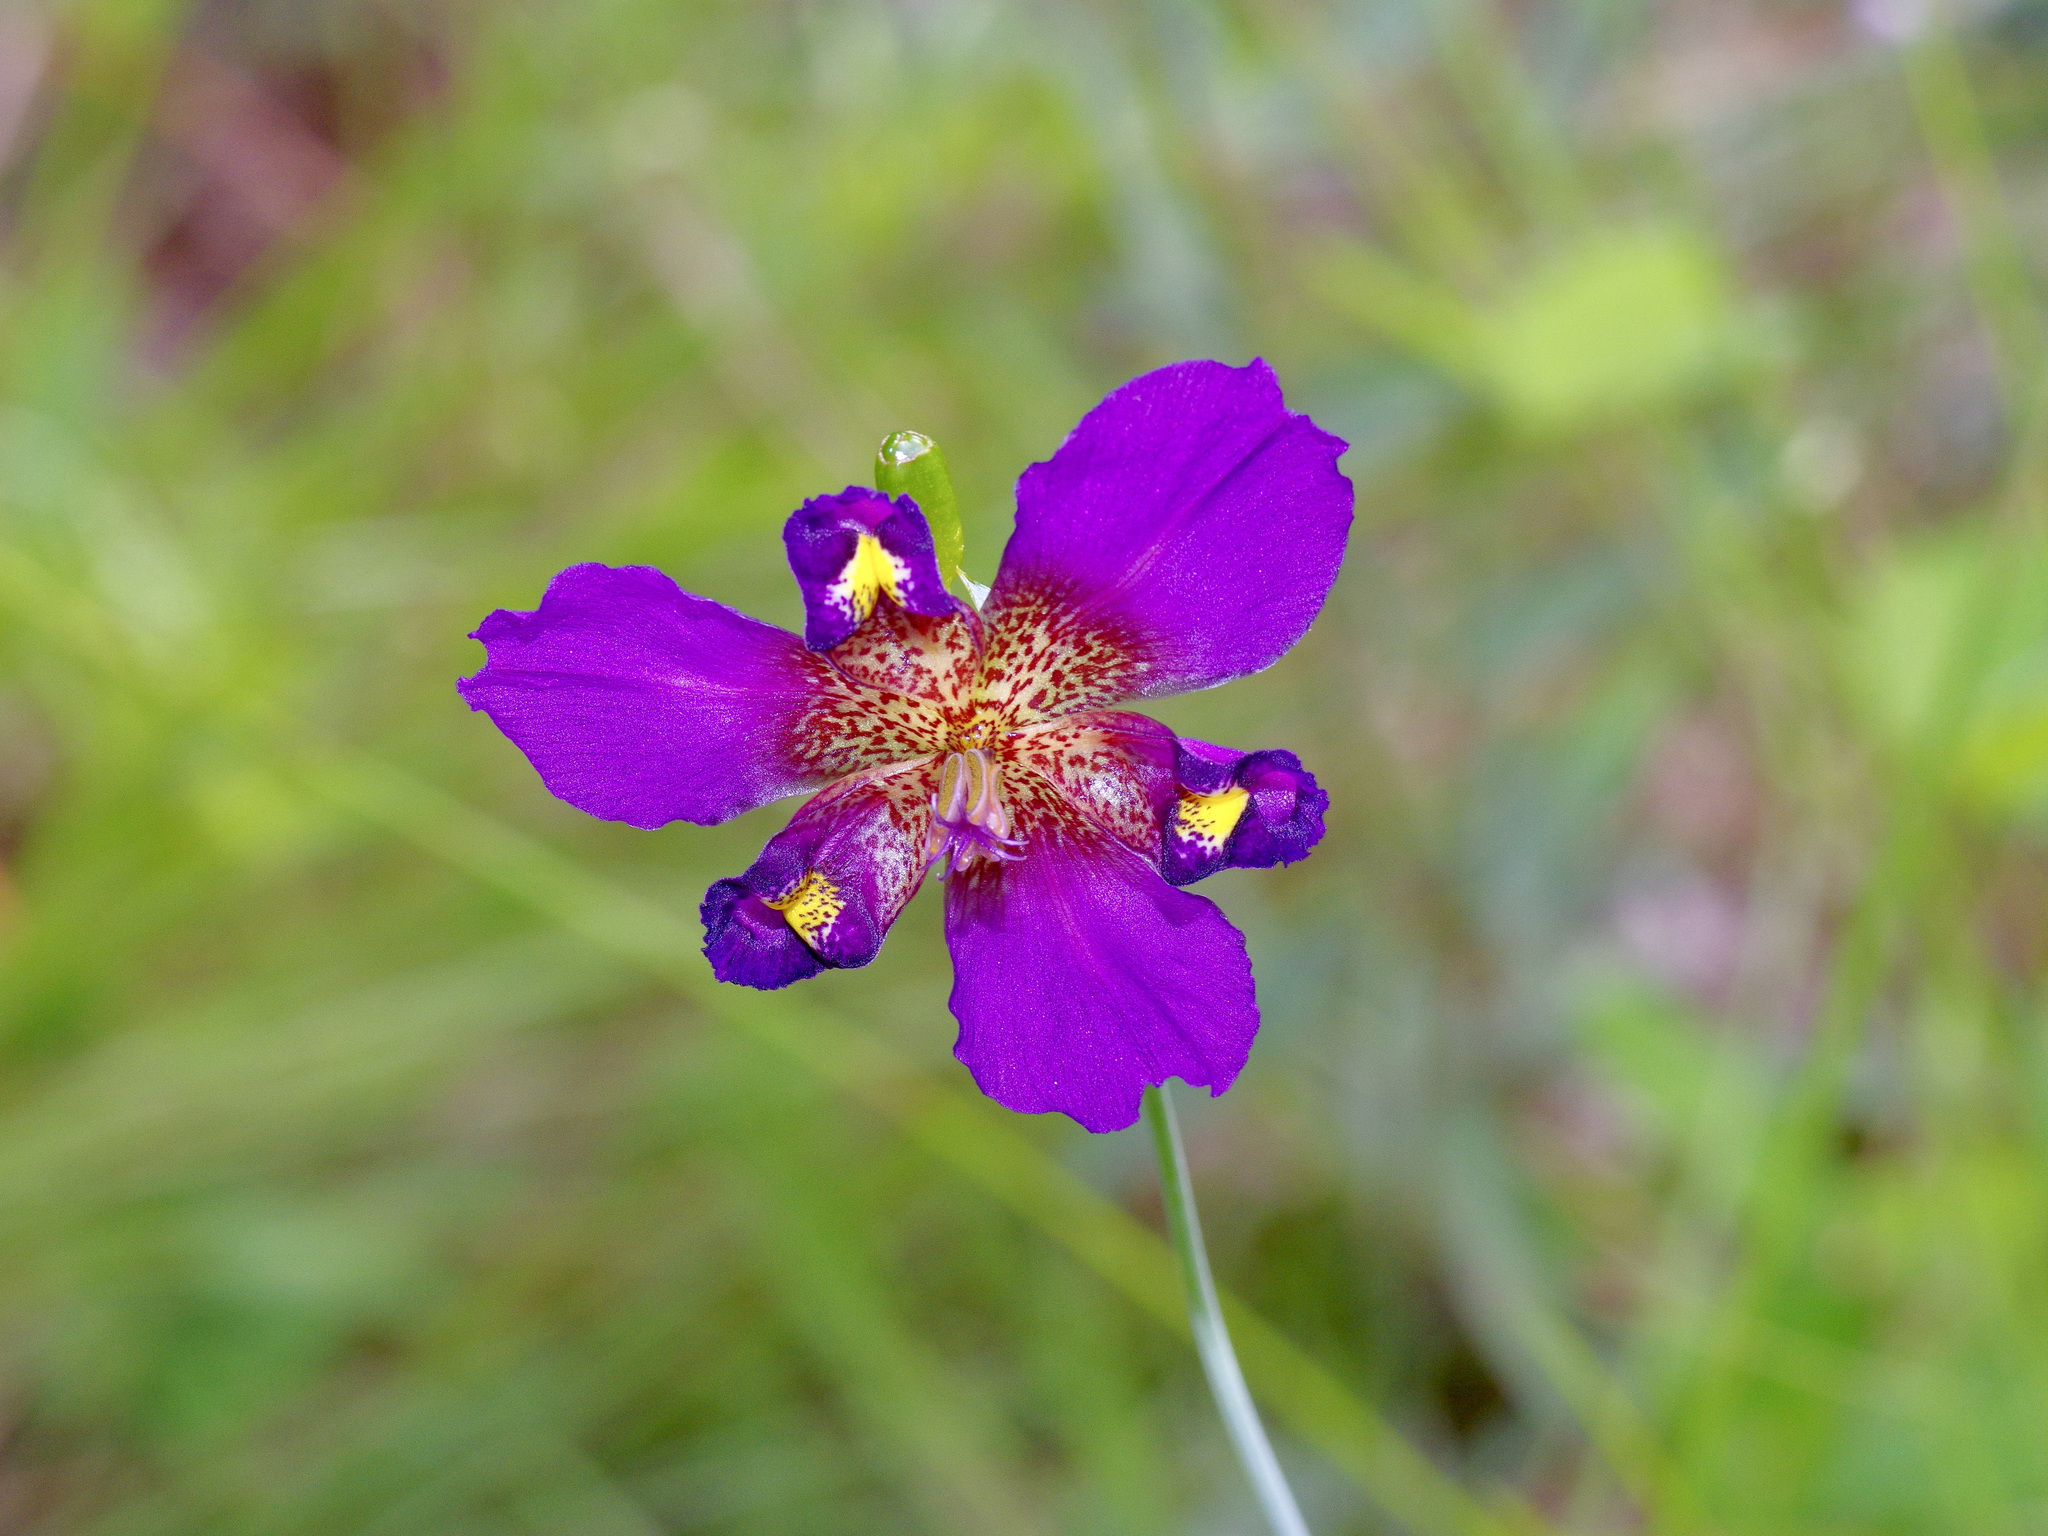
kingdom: Plantae
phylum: Tracheophyta
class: Liliopsida
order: Asparagales
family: Iridaceae
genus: Alophia
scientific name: Alophia drummondii
